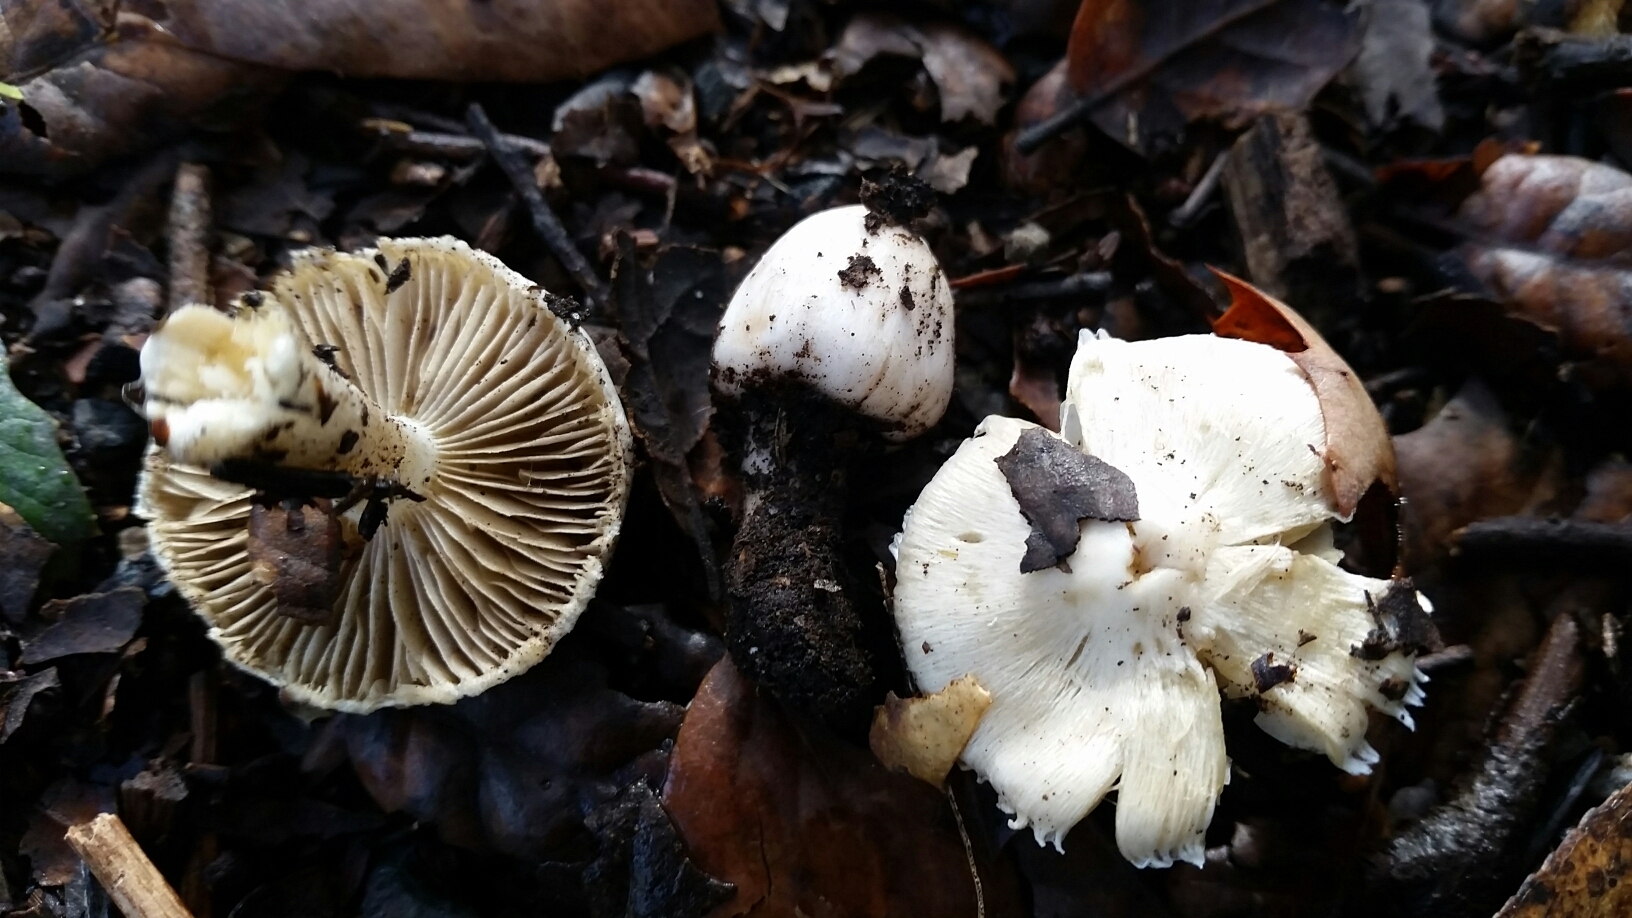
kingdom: Fungi
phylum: Basidiomycota
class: Agaricomycetes
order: Agaricales
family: Inocybaceae
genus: Inocybe
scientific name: Inocybe insinuata
